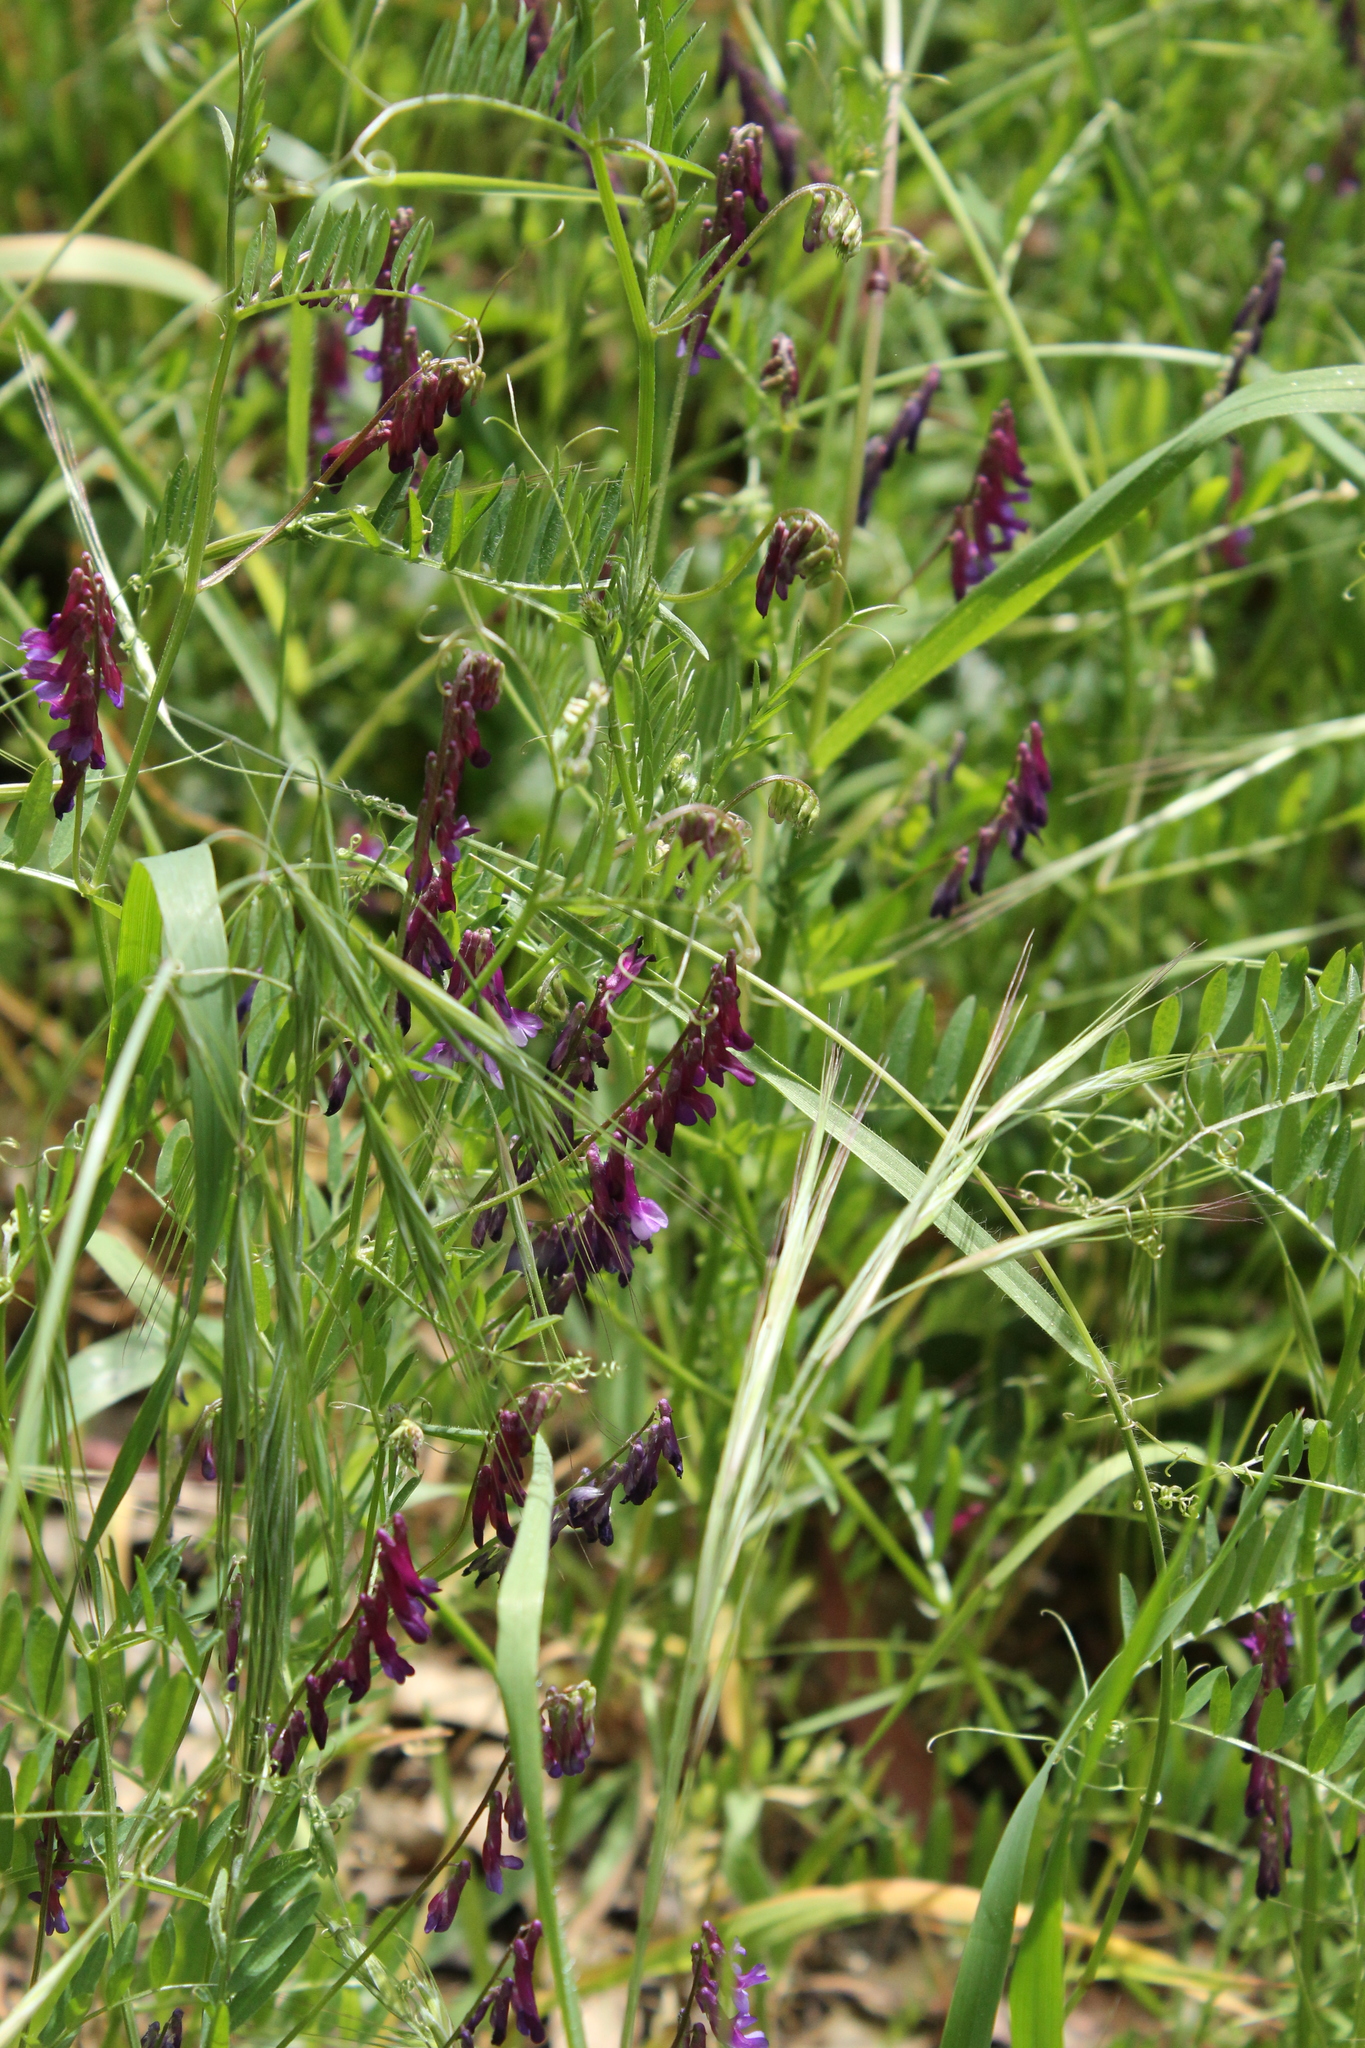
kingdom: Plantae
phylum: Tracheophyta
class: Magnoliopsida
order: Fabales
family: Fabaceae
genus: Vicia
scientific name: Vicia villosa
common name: Fodder vetch
